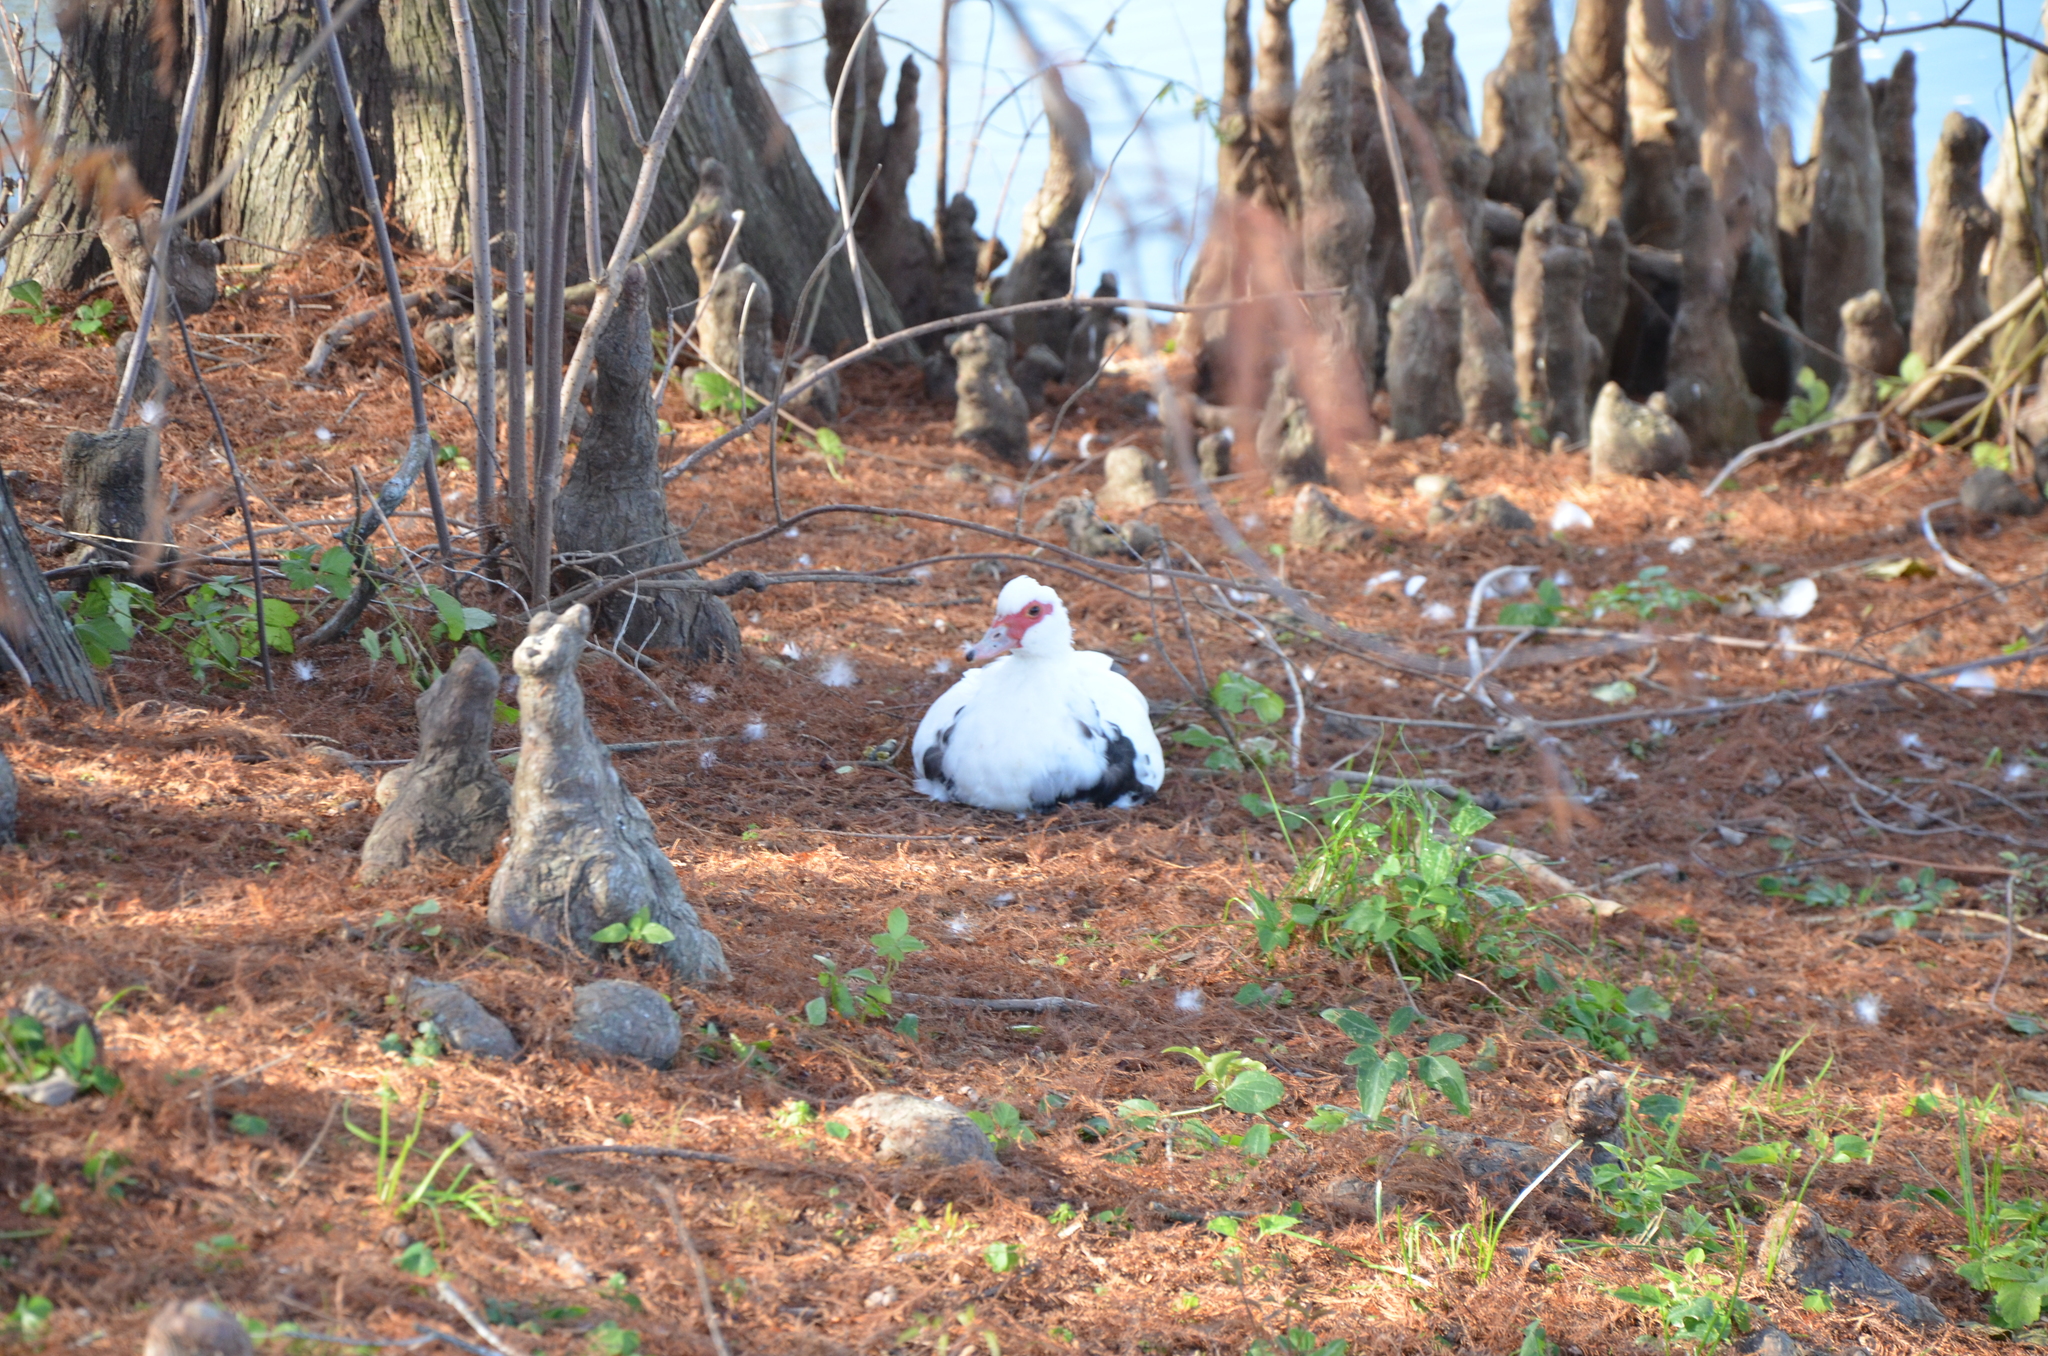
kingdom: Animalia
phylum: Chordata
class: Aves
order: Anseriformes
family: Anatidae
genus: Cairina
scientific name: Cairina moschata
